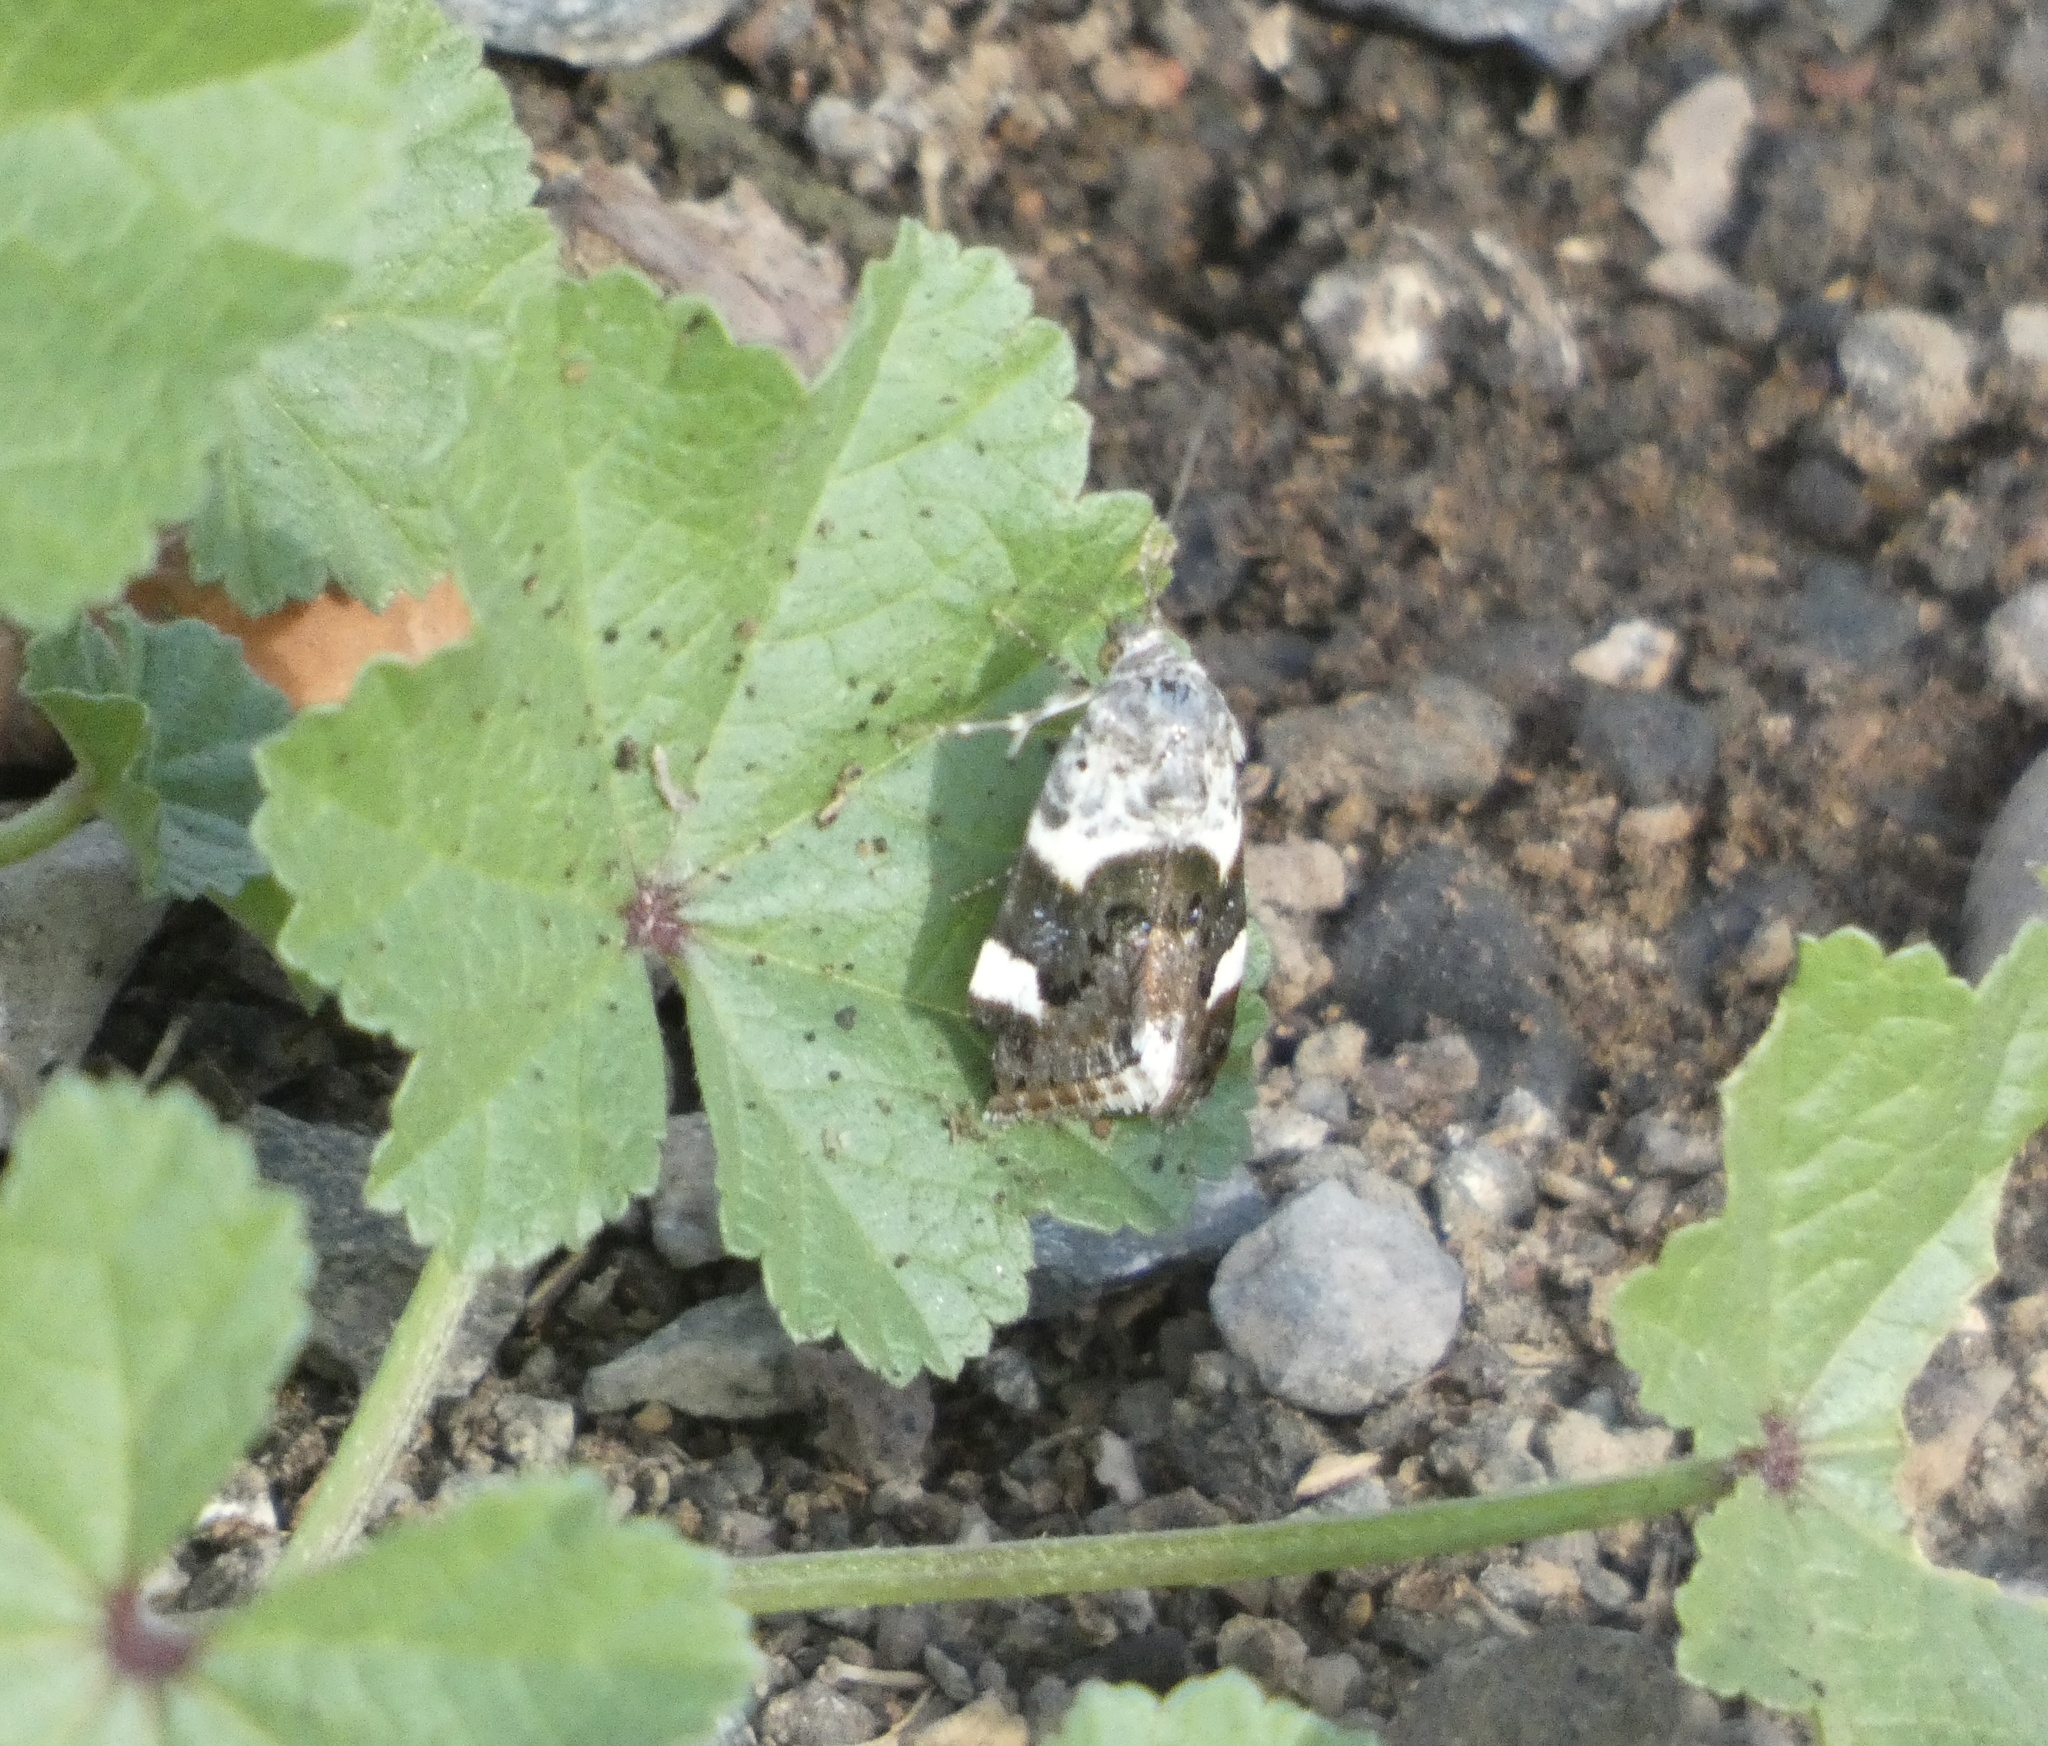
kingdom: Animalia
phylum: Arthropoda
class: Insecta
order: Lepidoptera
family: Noctuidae
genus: Acontia
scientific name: Acontia lucida
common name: Pale shoulder
